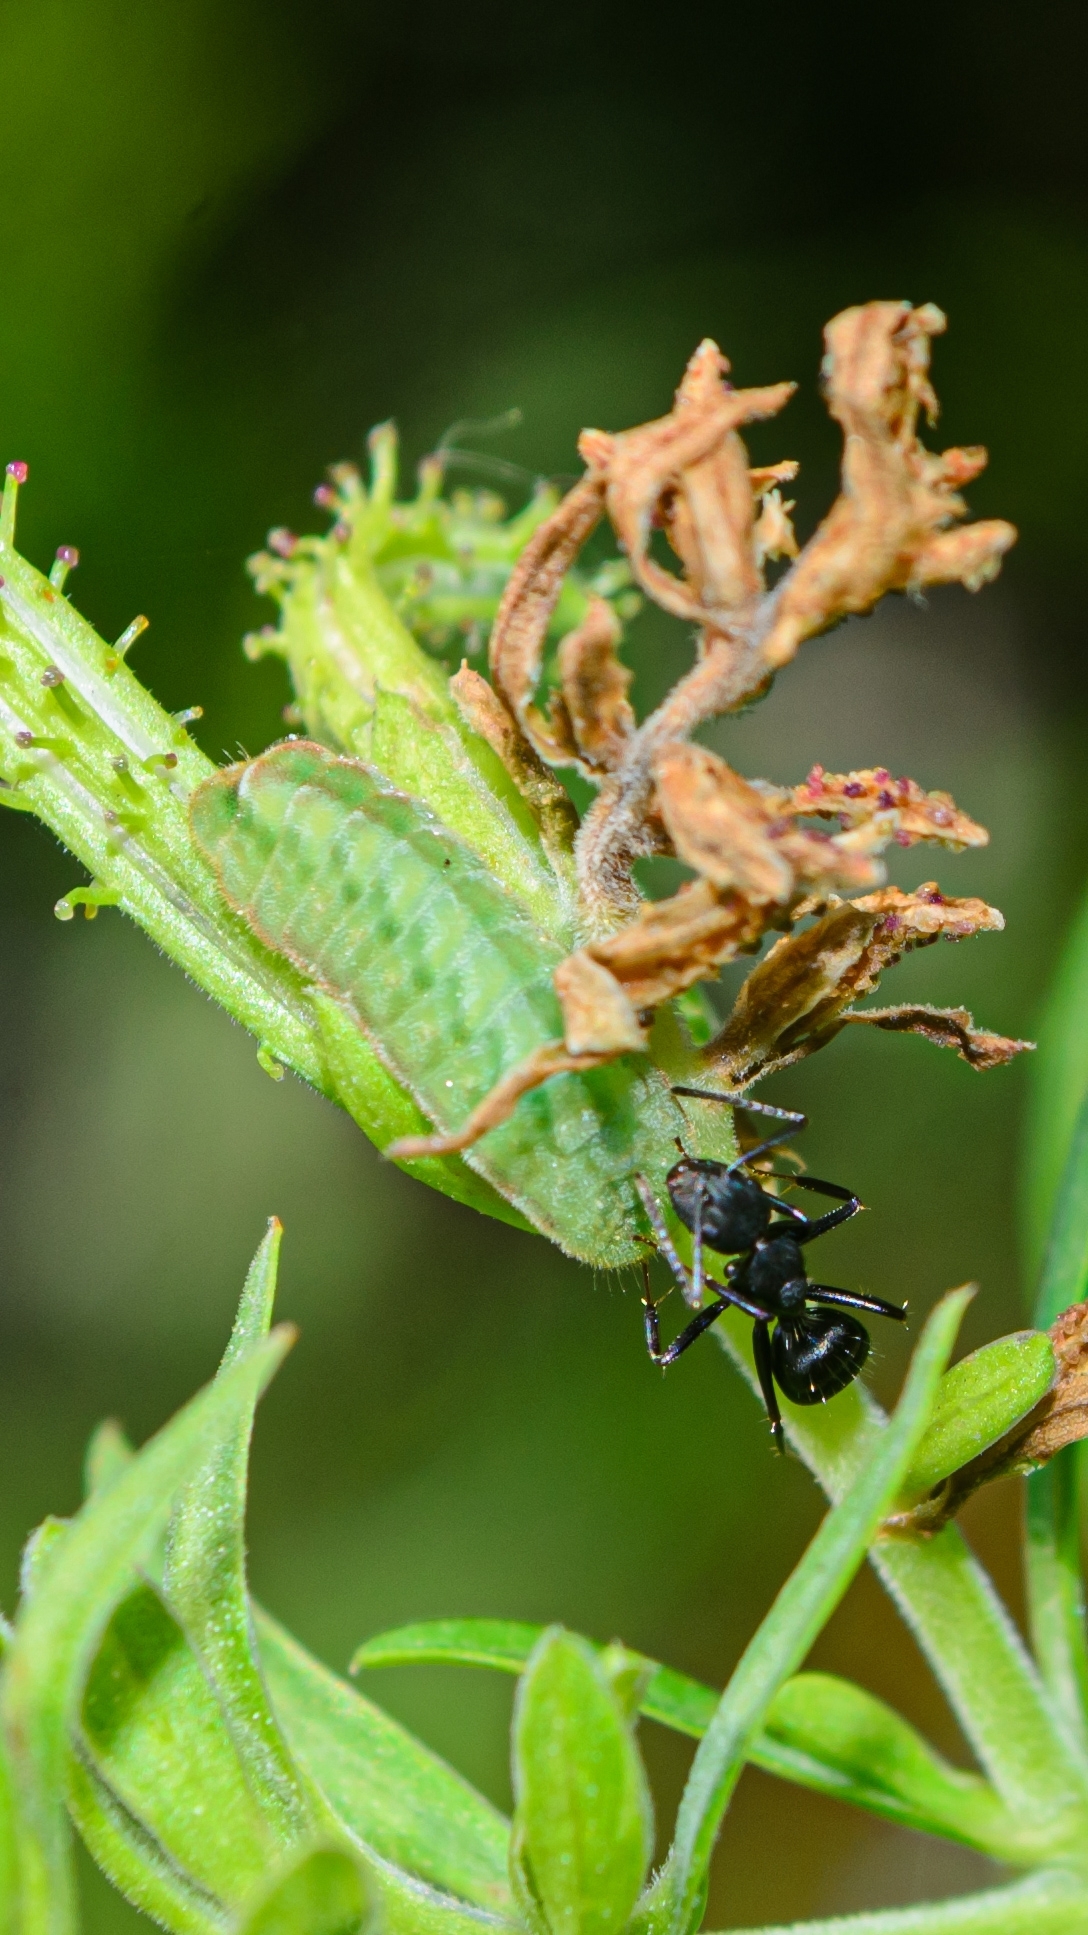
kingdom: Animalia
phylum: Arthropoda
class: Insecta
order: Lepidoptera
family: Lycaenidae
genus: Leptotes
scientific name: Leptotes cassius
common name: Cassius blue
